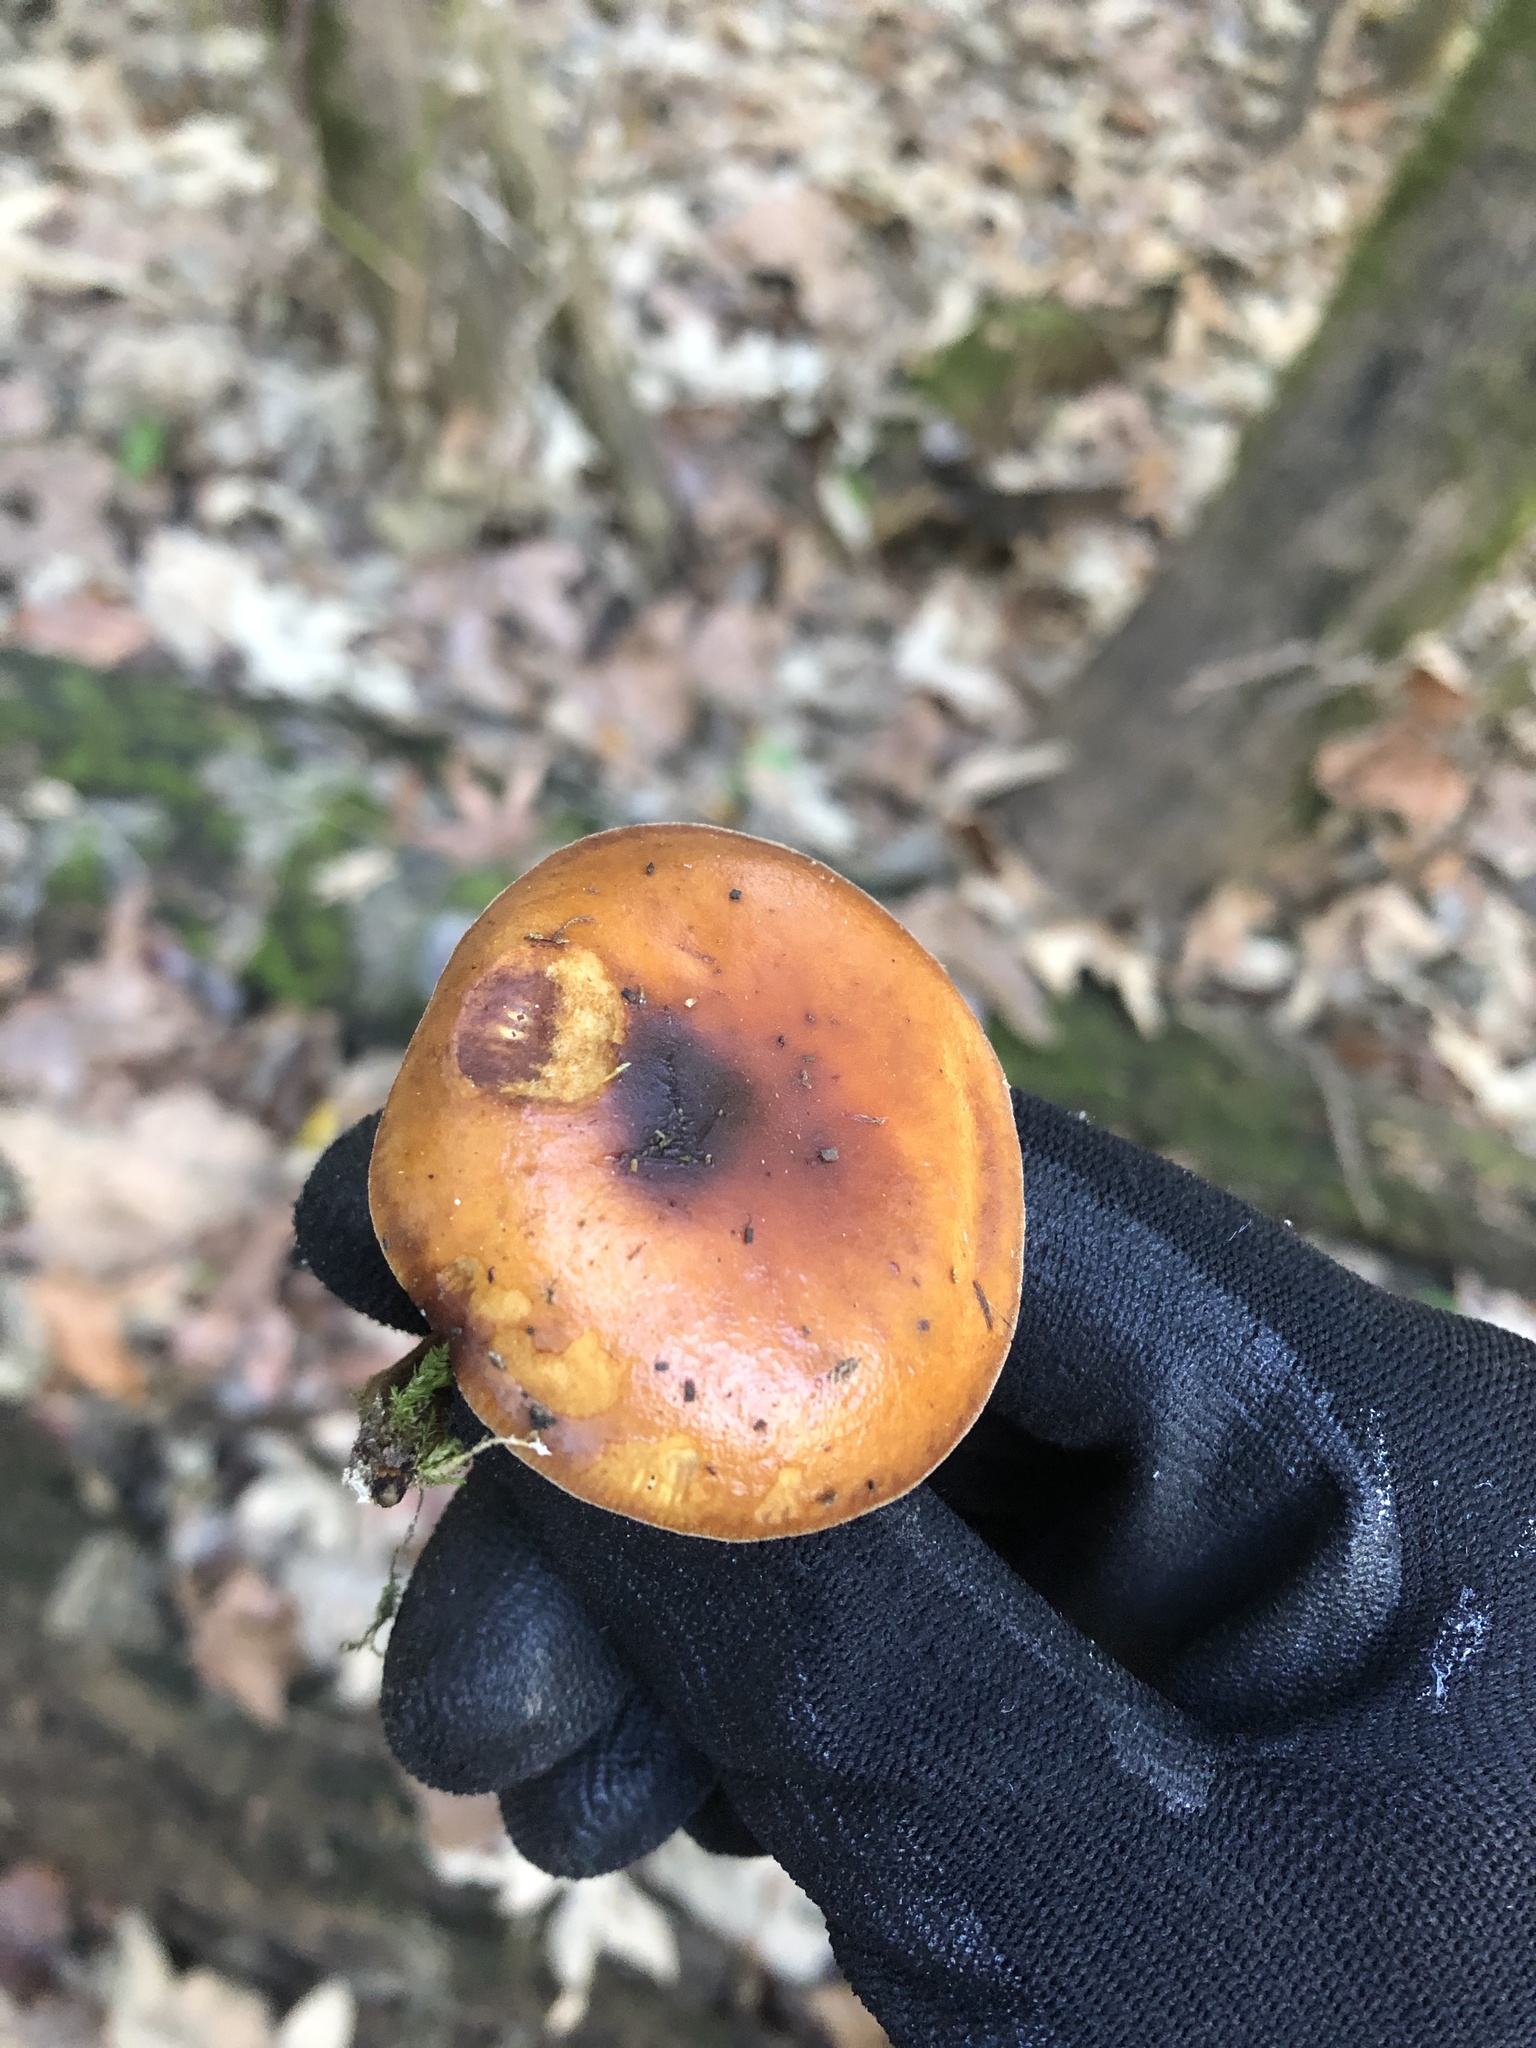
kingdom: Fungi
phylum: Basidiomycota
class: Agaricomycetes
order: Agaricales
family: Physalacriaceae
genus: Flammulina
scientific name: Flammulina velutipes
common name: Velvet shank
